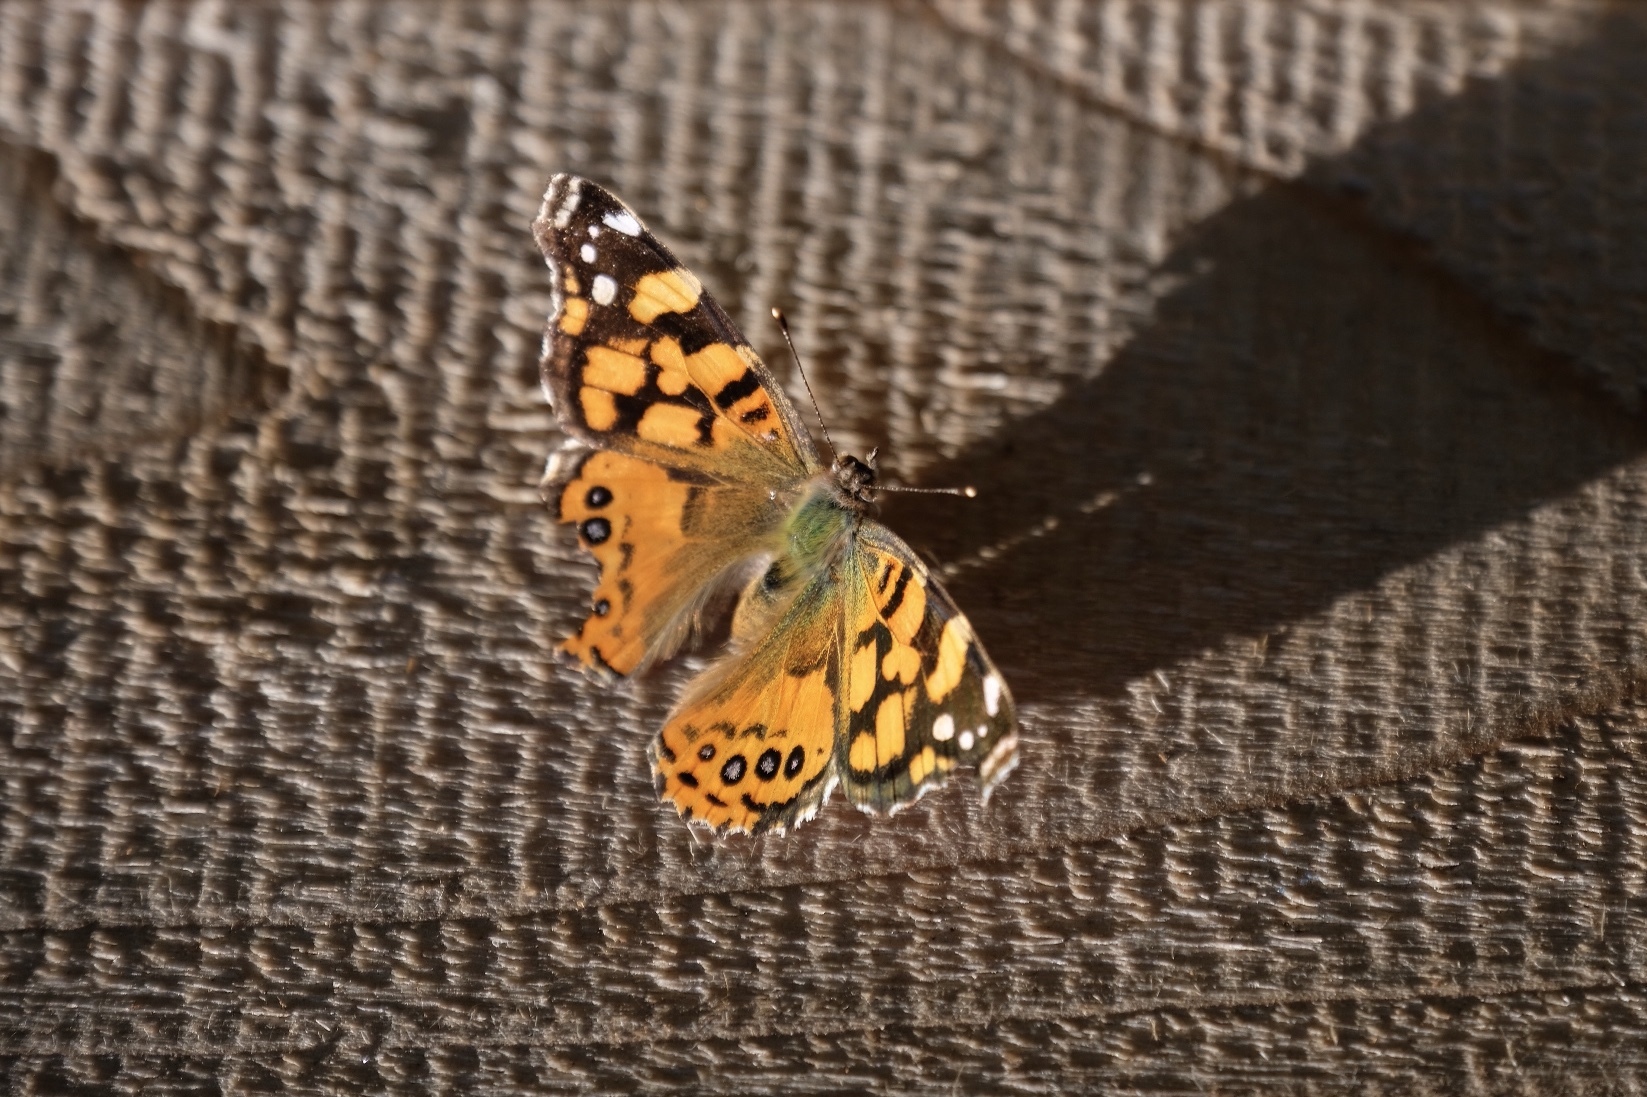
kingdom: Animalia
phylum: Arthropoda
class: Insecta
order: Lepidoptera
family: Nymphalidae
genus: Vanessa
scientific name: Vanessa annabella
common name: West coast lady
